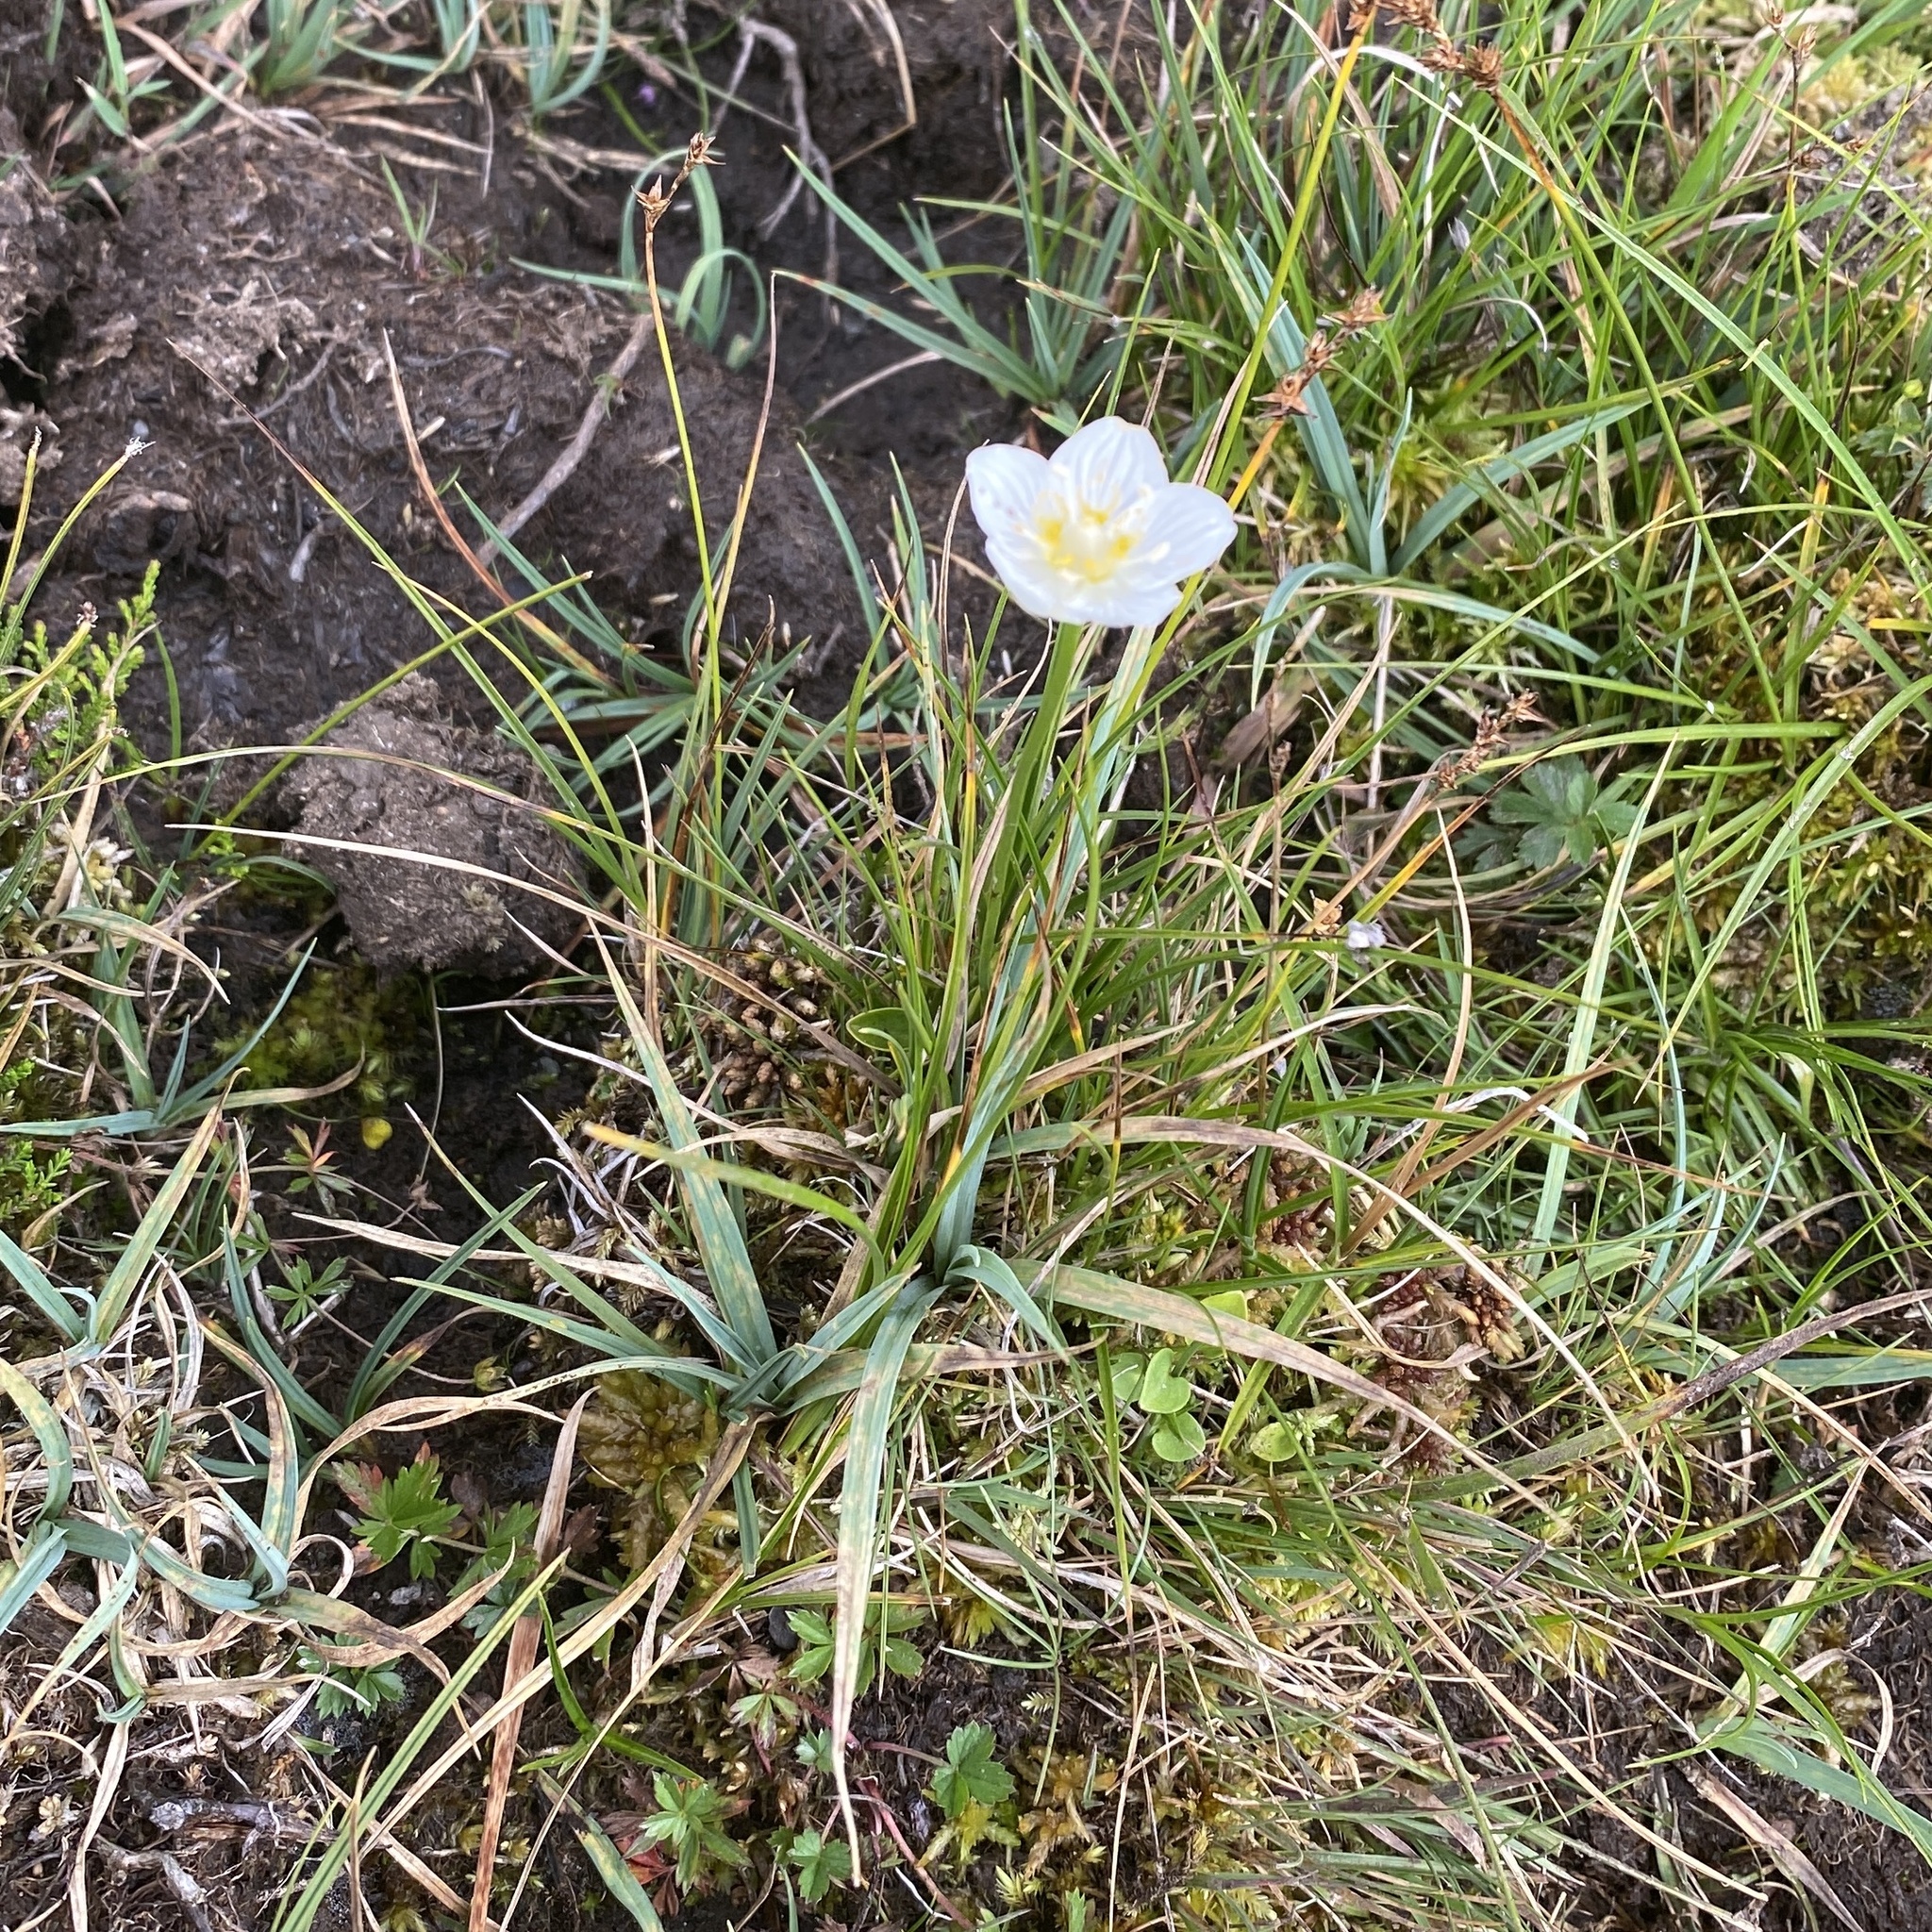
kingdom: Plantae
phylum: Tracheophyta
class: Magnoliopsida
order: Celastrales
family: Parnassiaceae
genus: Parnassia
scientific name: Parnassia palustris
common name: Grass-of-parnassus
